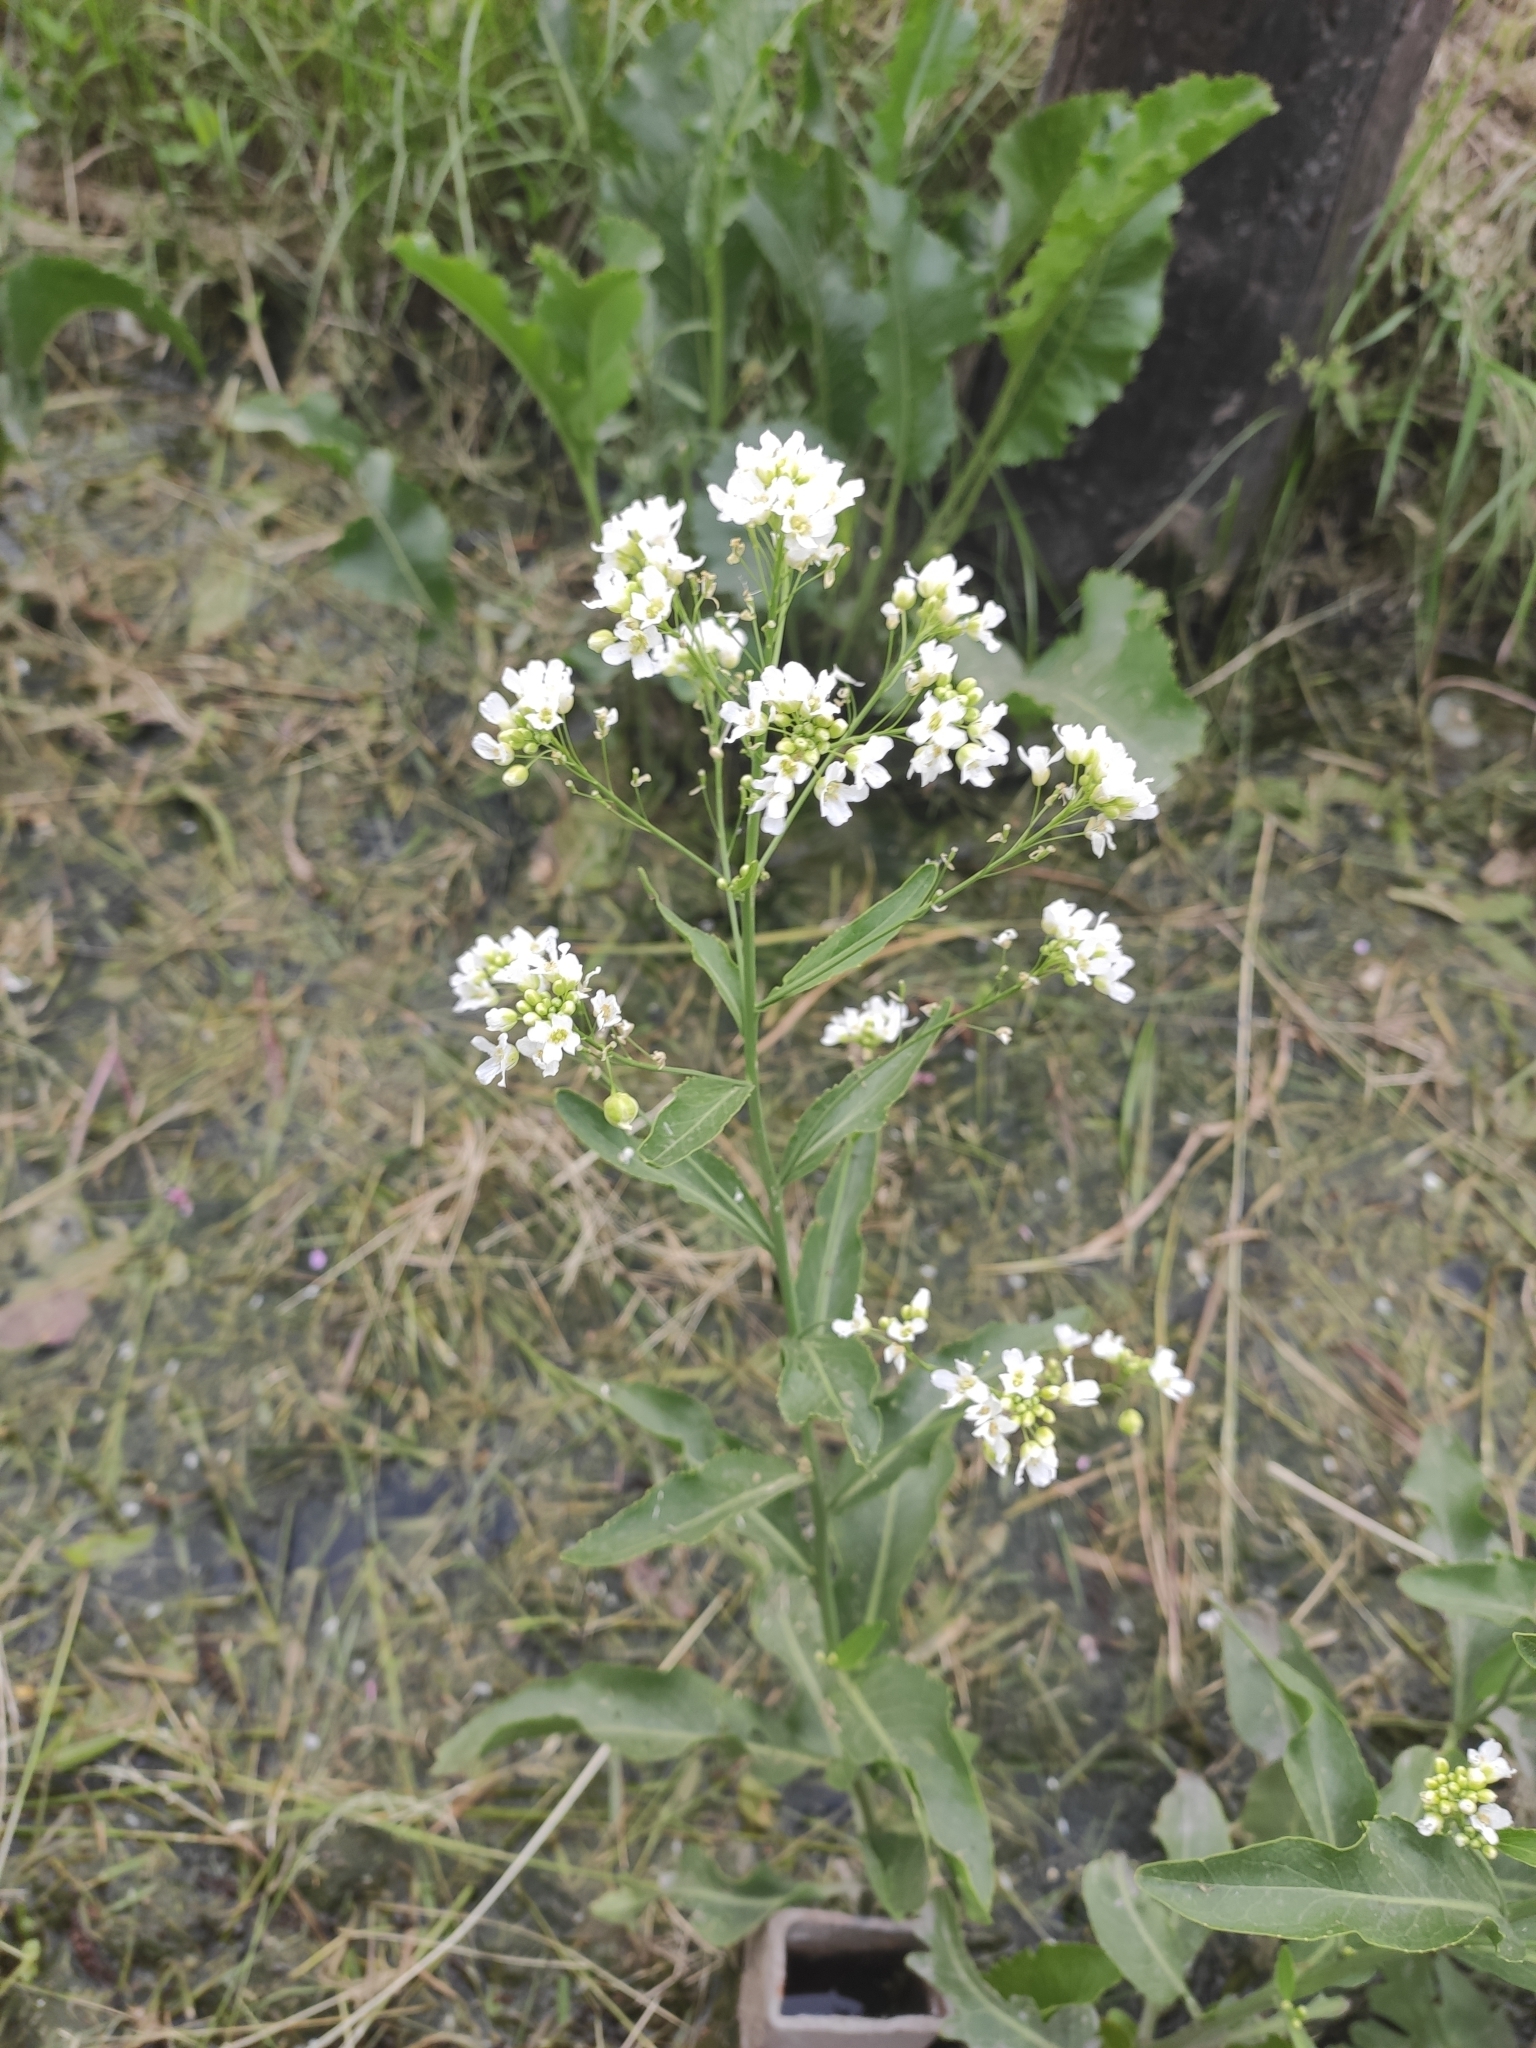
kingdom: Plantae
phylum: Tracheophyta
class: Magnoliopsida
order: Brassicales
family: Brassicaceae
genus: Armoracia
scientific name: Armoracia rusticana
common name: Horseradish
